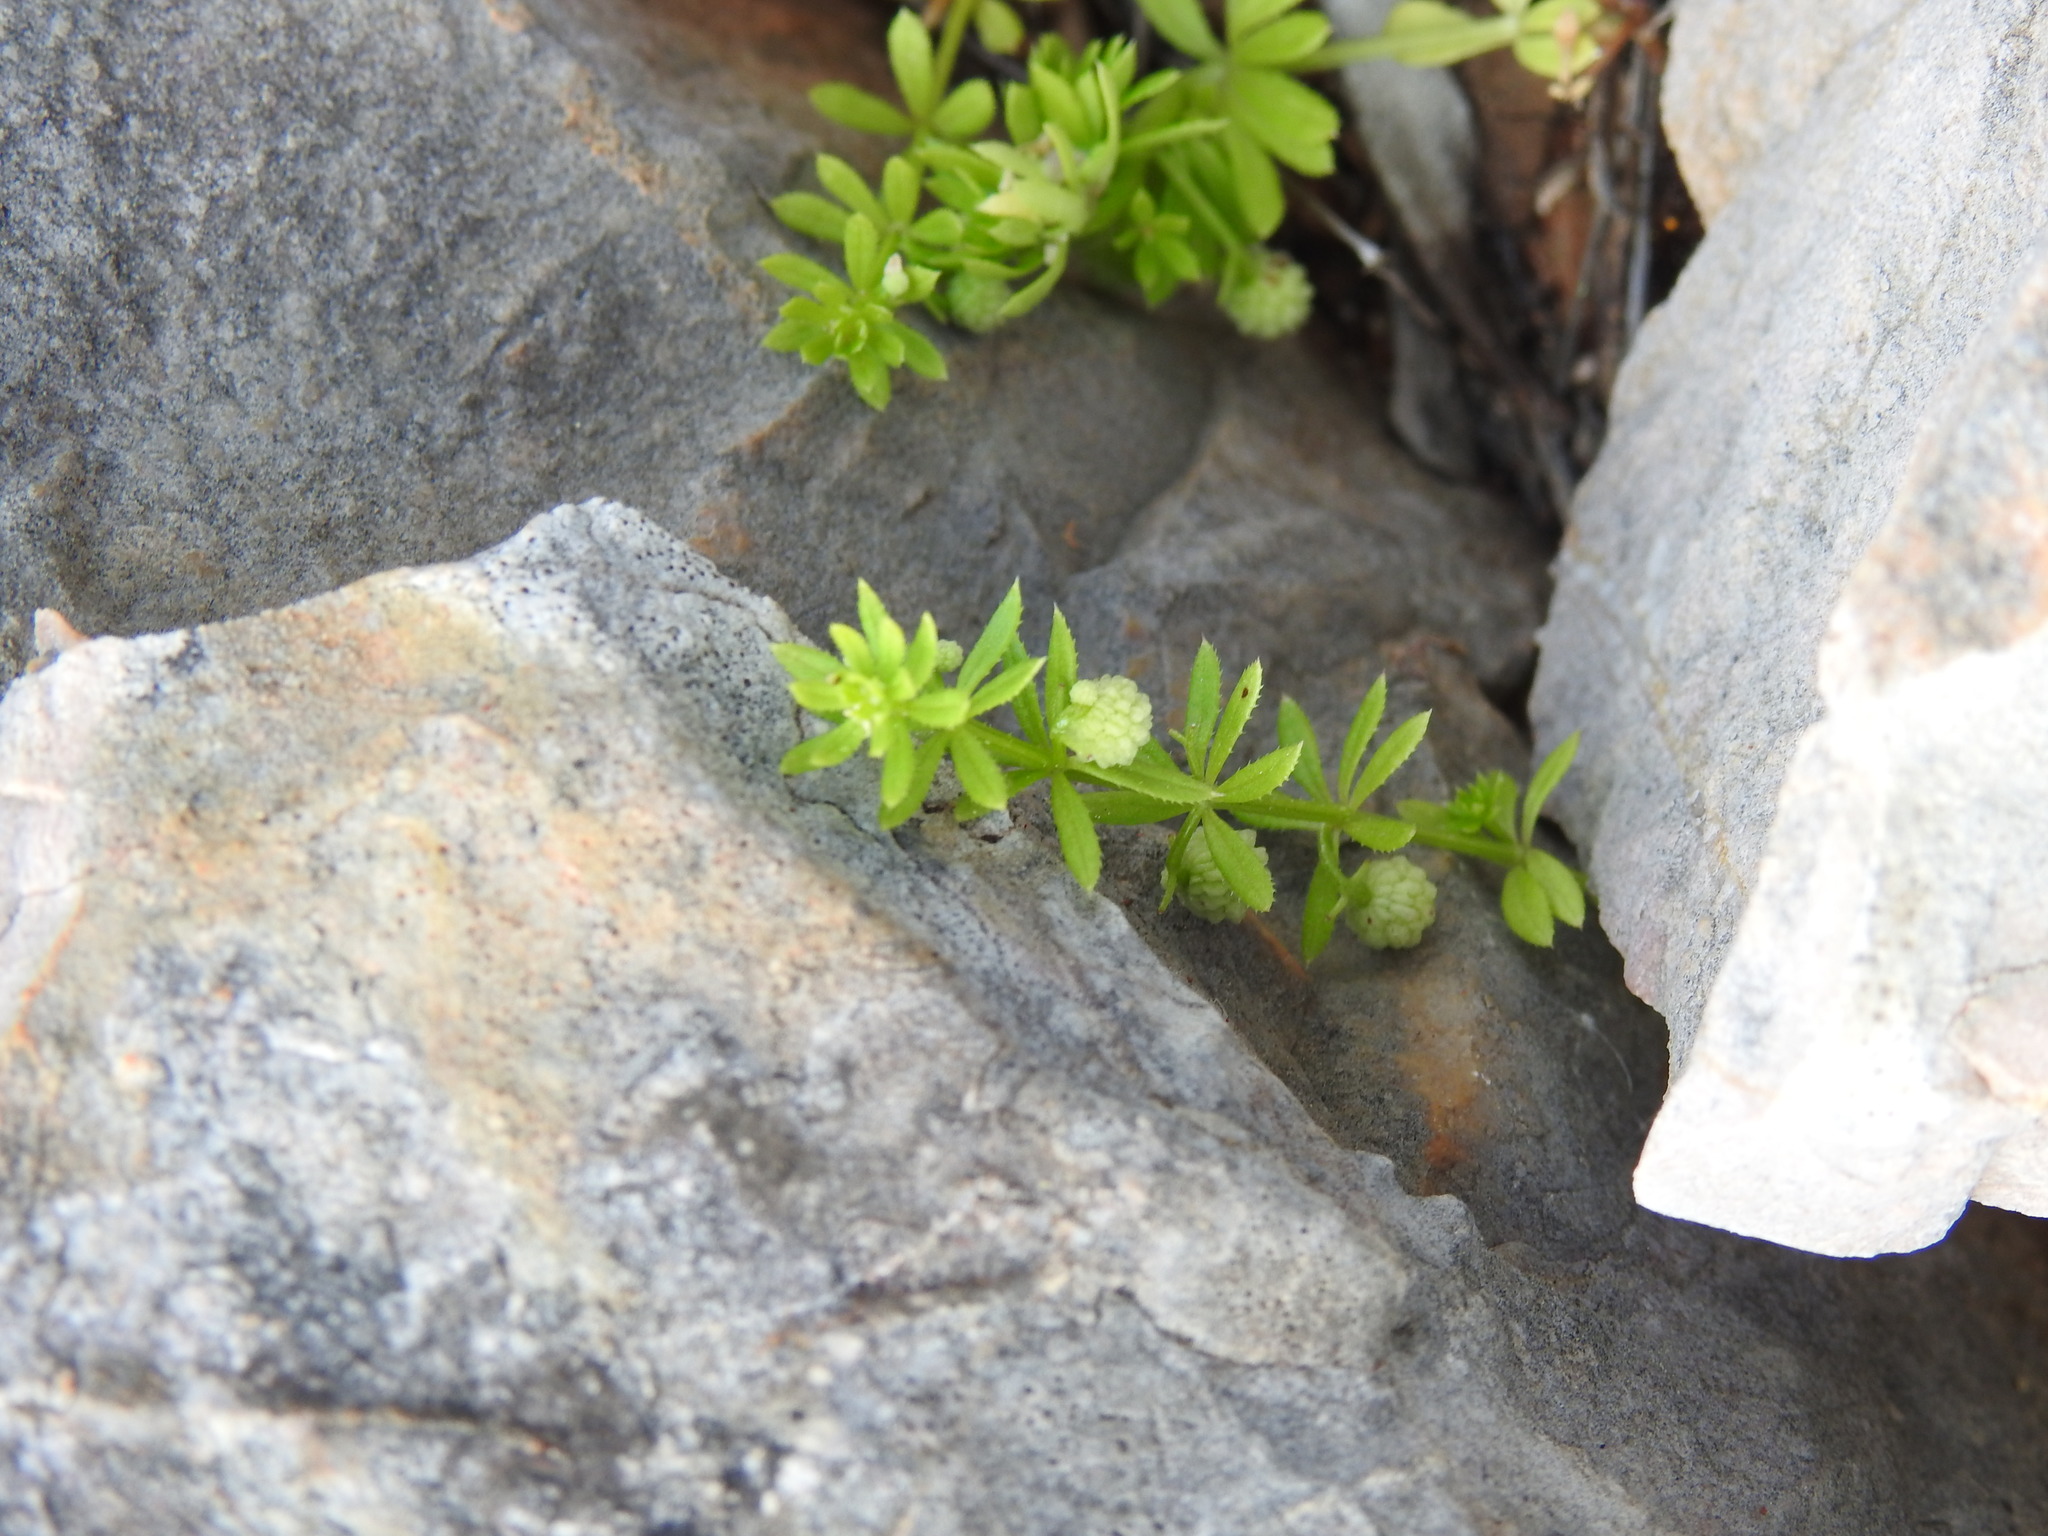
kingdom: Plantae
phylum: Tracheophyta
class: Magnoliopsida
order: Gentianales
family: Rubiaceae
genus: Galium
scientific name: Galium verrucosum
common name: Warty bedstraw
